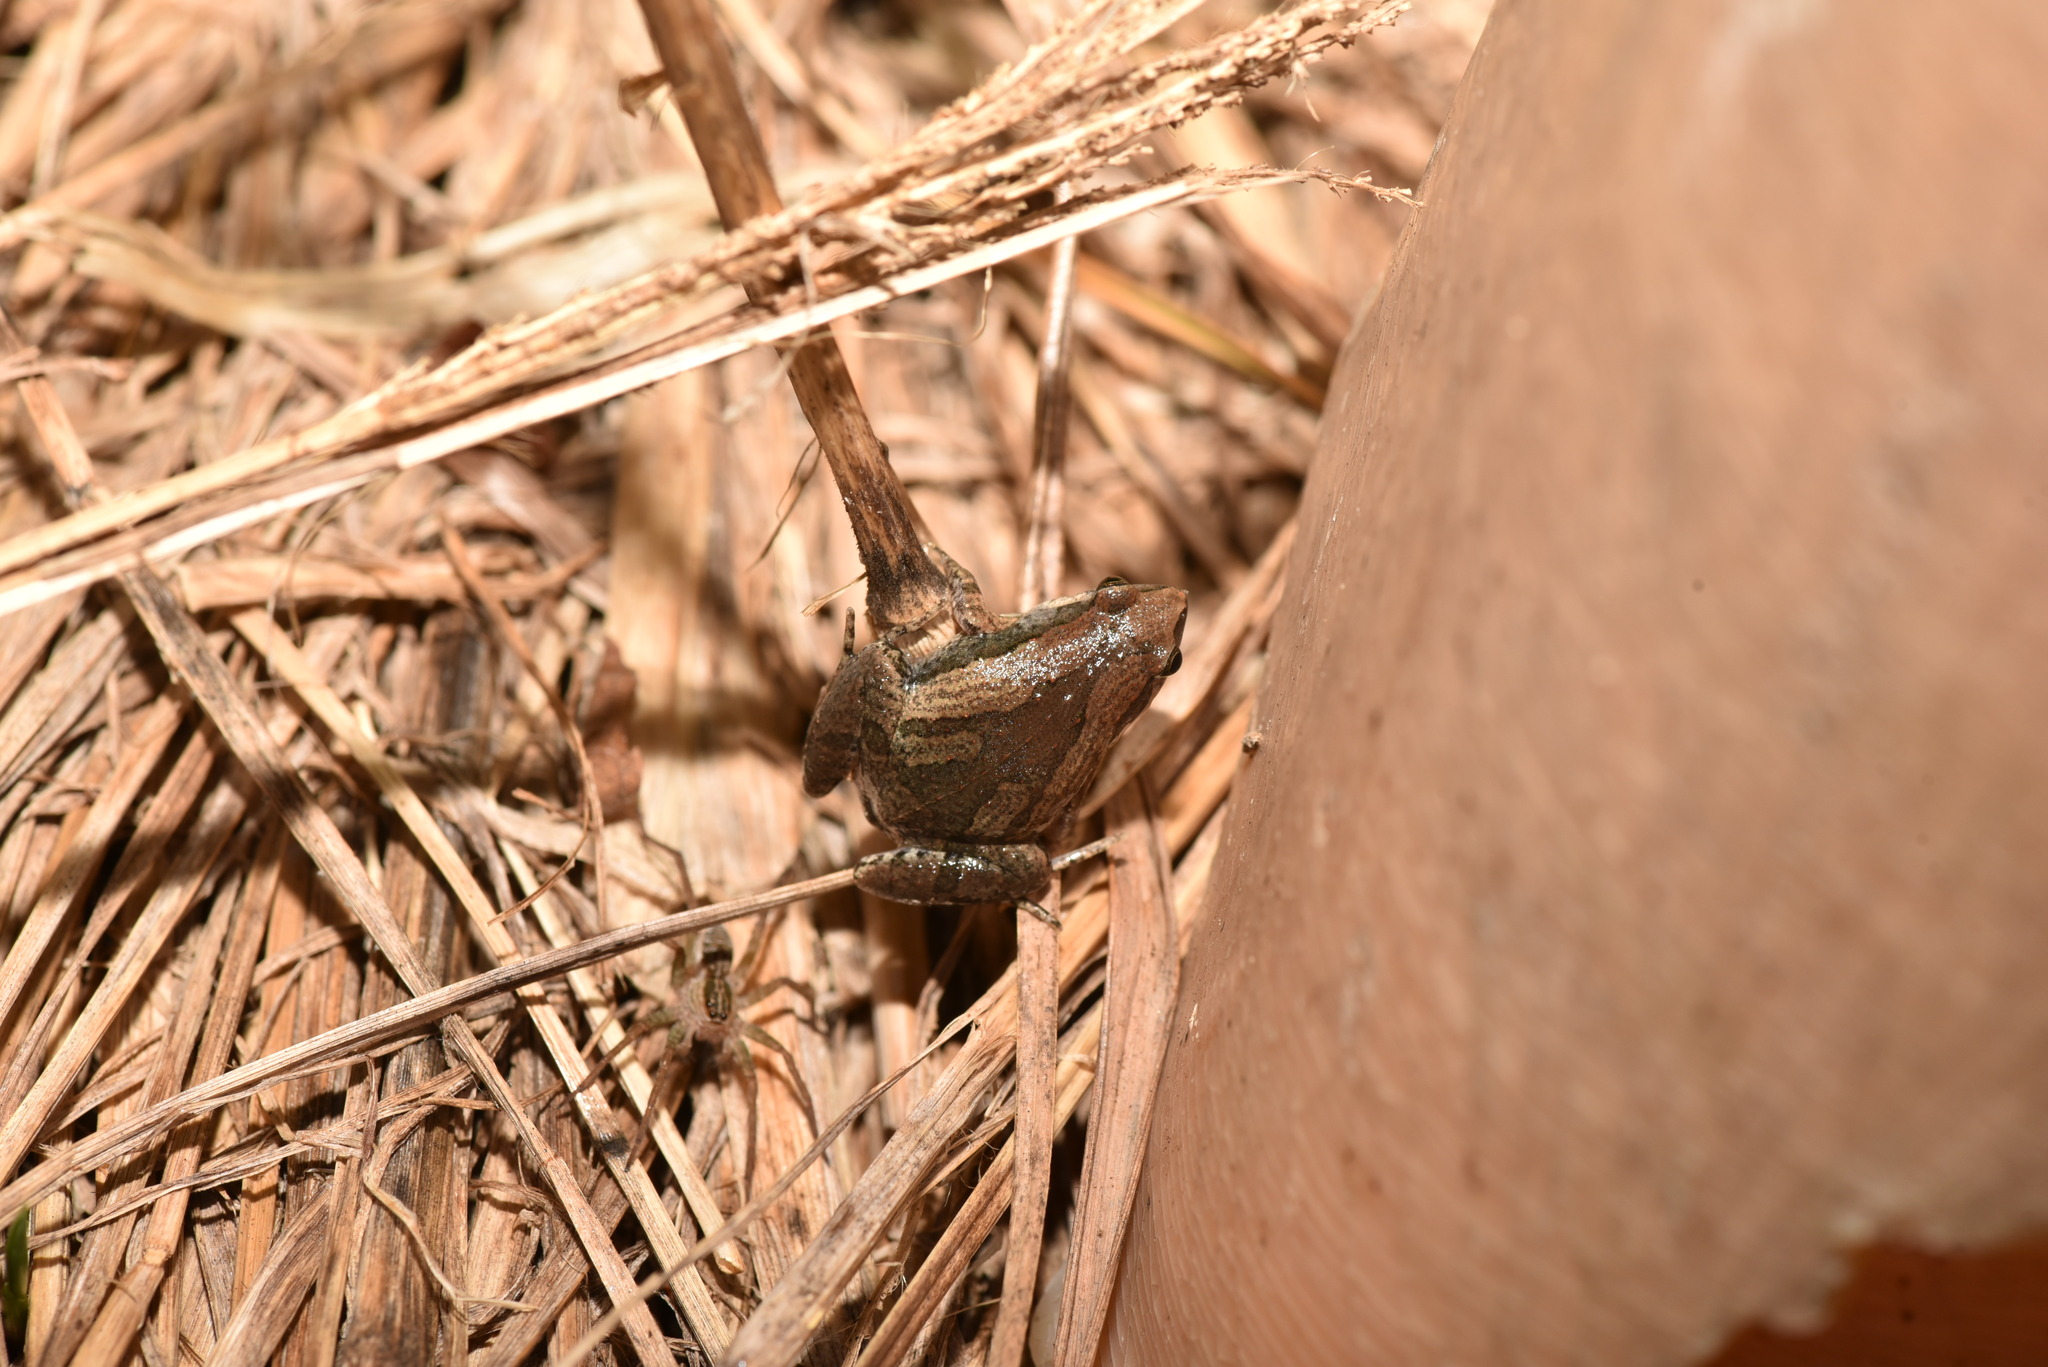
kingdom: Animalia
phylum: Chordata
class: Amphibia
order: Anura
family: Microhylidae
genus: Microhyla
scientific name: Microhyla fissipes
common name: Ornate narrow-mouthed frog
